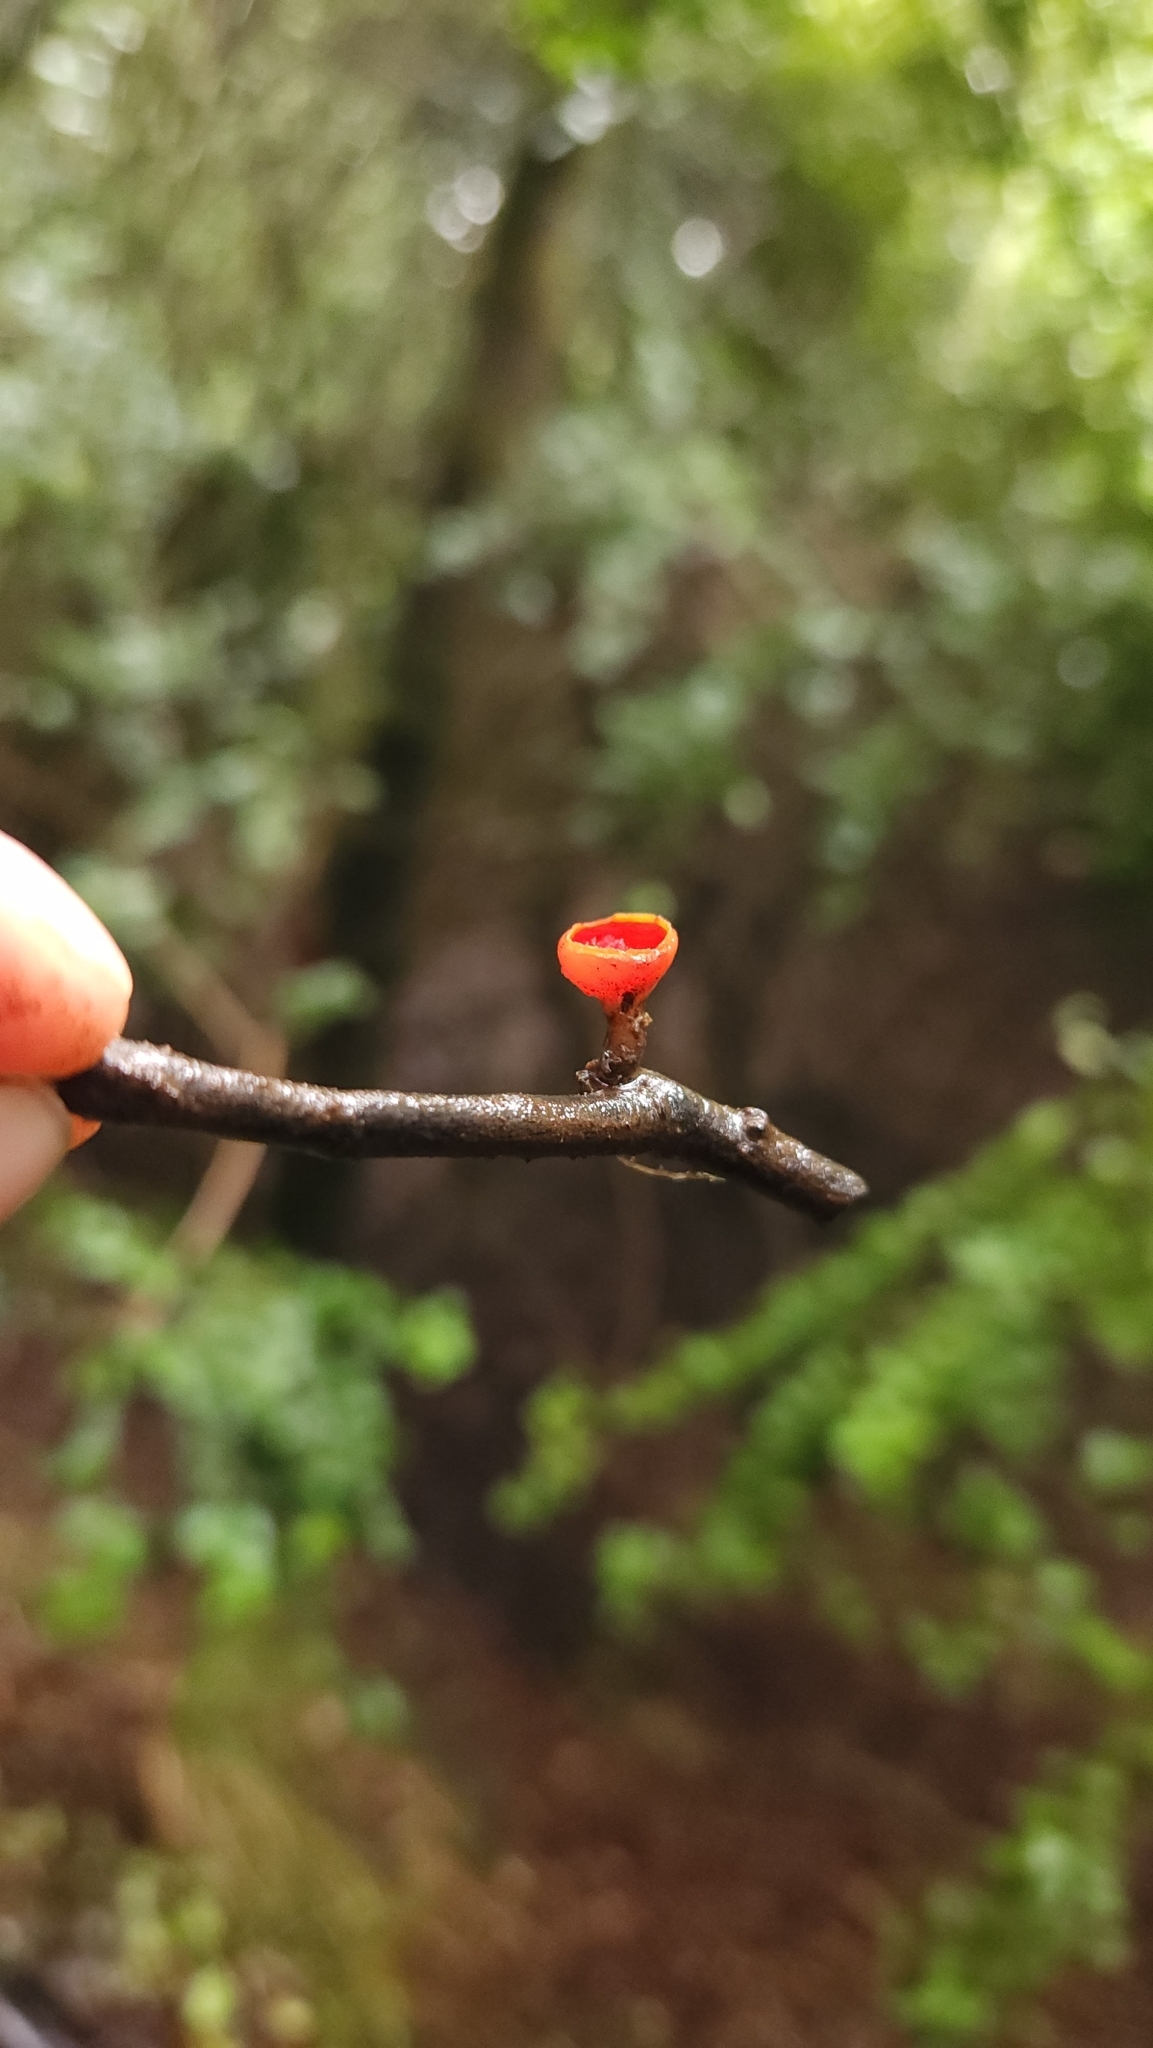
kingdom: Fungi
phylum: Ascomycota
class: Pezizomycetes
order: Pezizales
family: Sarcoscyphaceae
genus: Sarcoscypha
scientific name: Sarcoscypha coccinea
